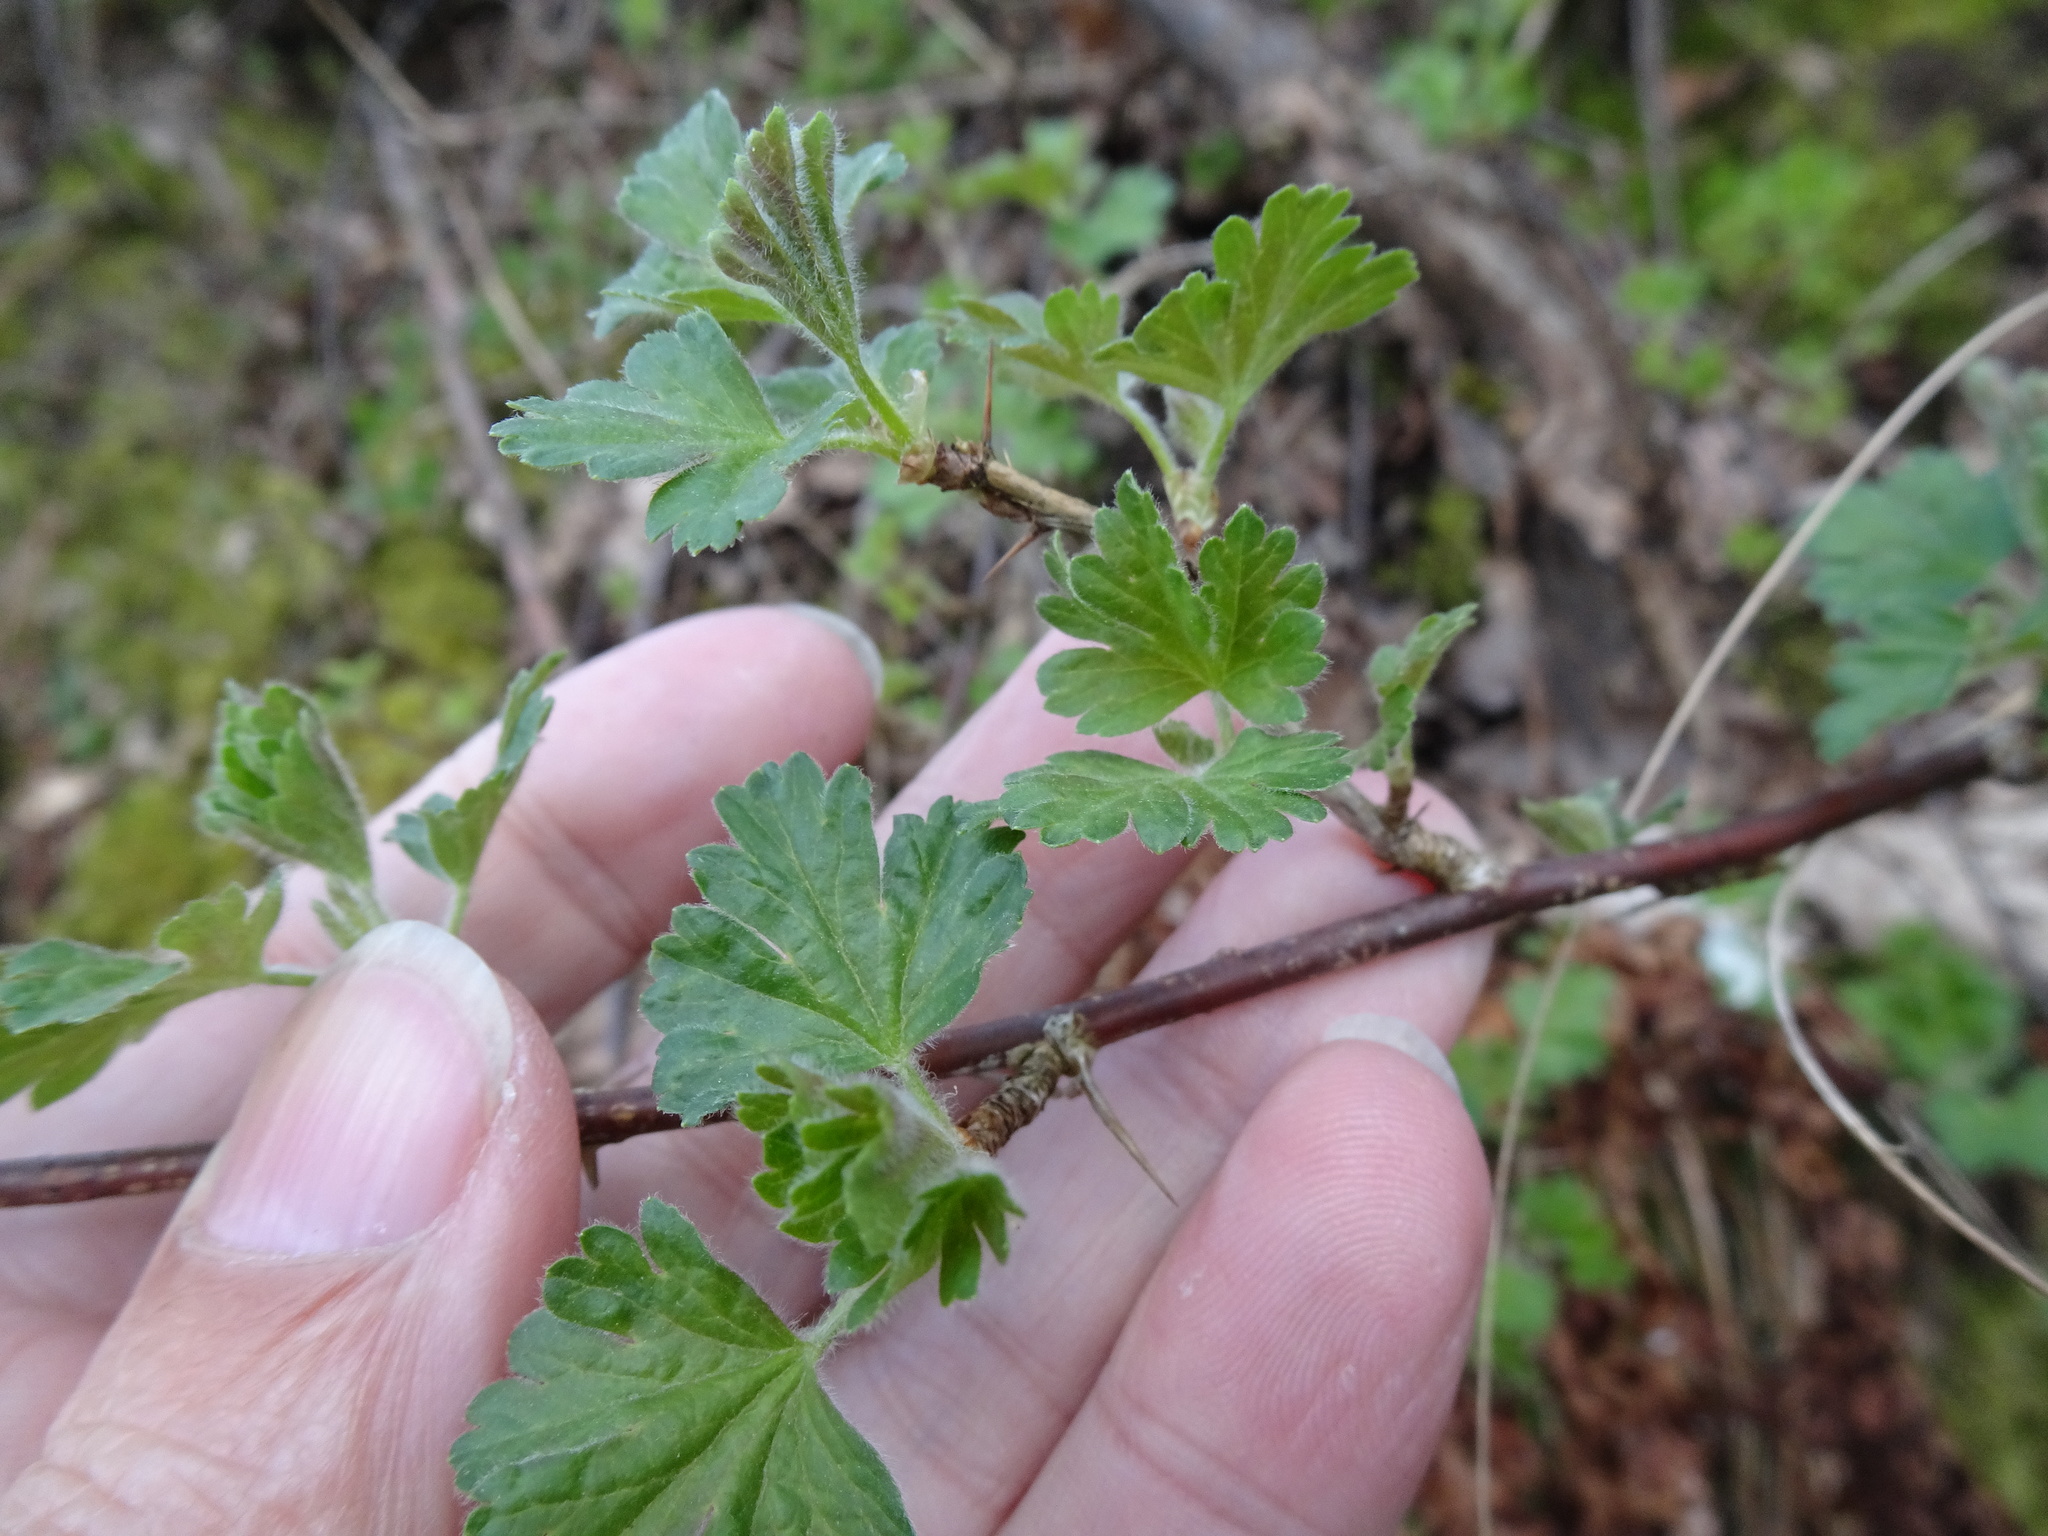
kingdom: Plantae
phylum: Tracheophyta
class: Magnoliopsida
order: Saxifragales
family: Grossulariaceae
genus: Ribes
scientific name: Ribes uva-crispa
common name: Gooseberry
